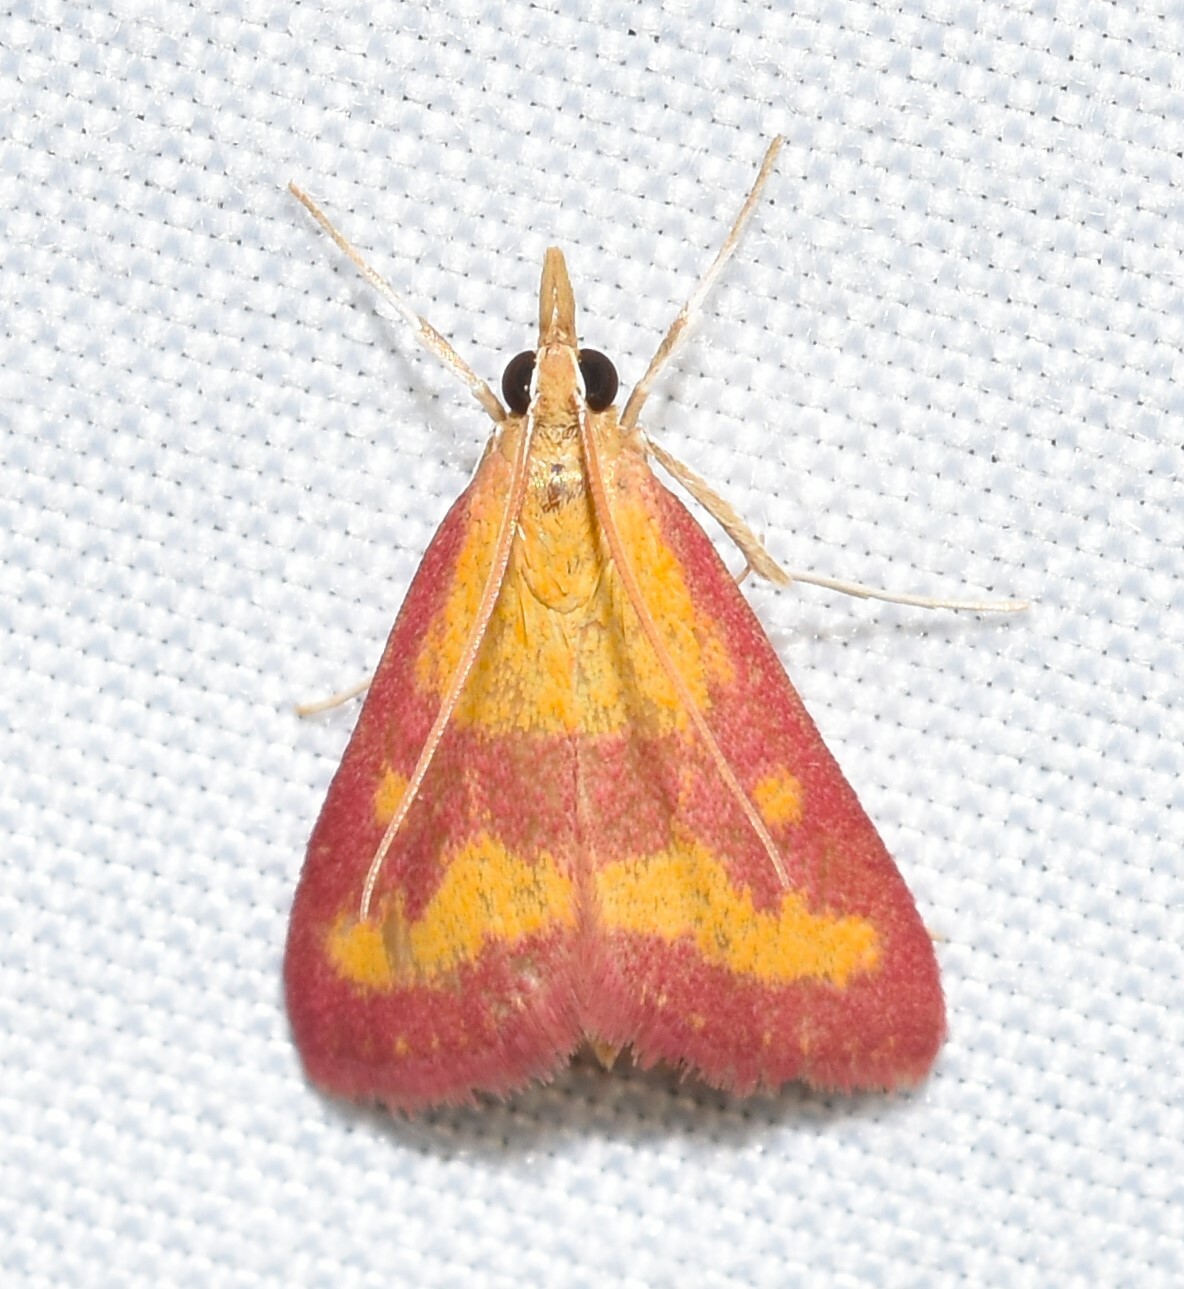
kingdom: Animalia
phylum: Arthropoda
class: Insecta
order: Lepidoptera
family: Crambidae
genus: Pyrausta
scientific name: Pyrausta laticlavia
